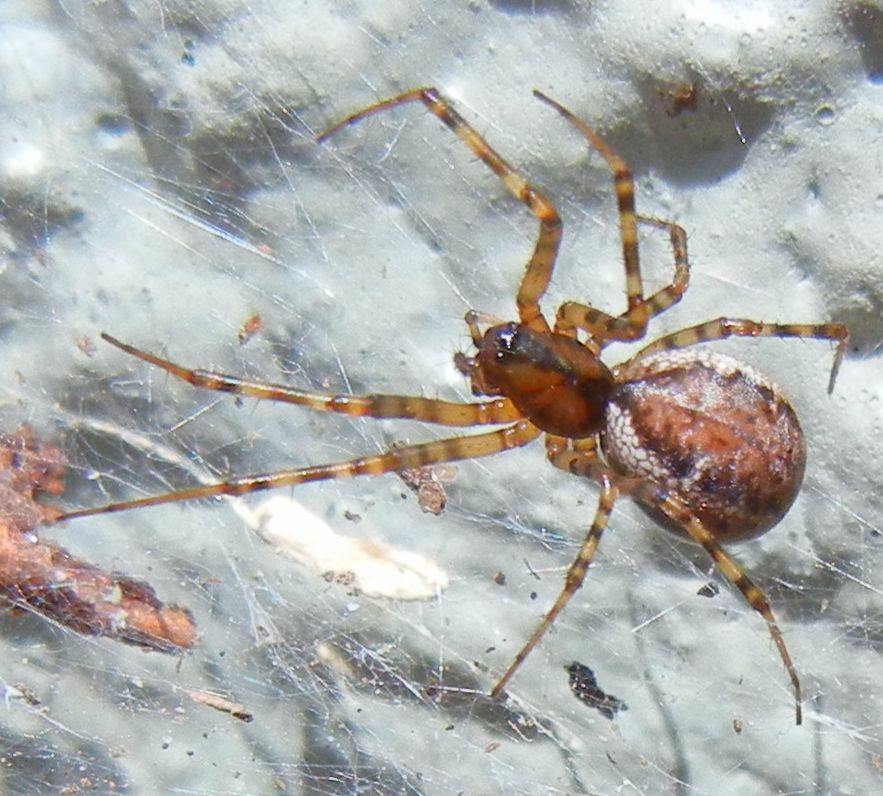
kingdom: Animalia
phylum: Arthropoda
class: Arachnida
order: Araneae
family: Linyphiidae
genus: Neriene
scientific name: Neriene montana
